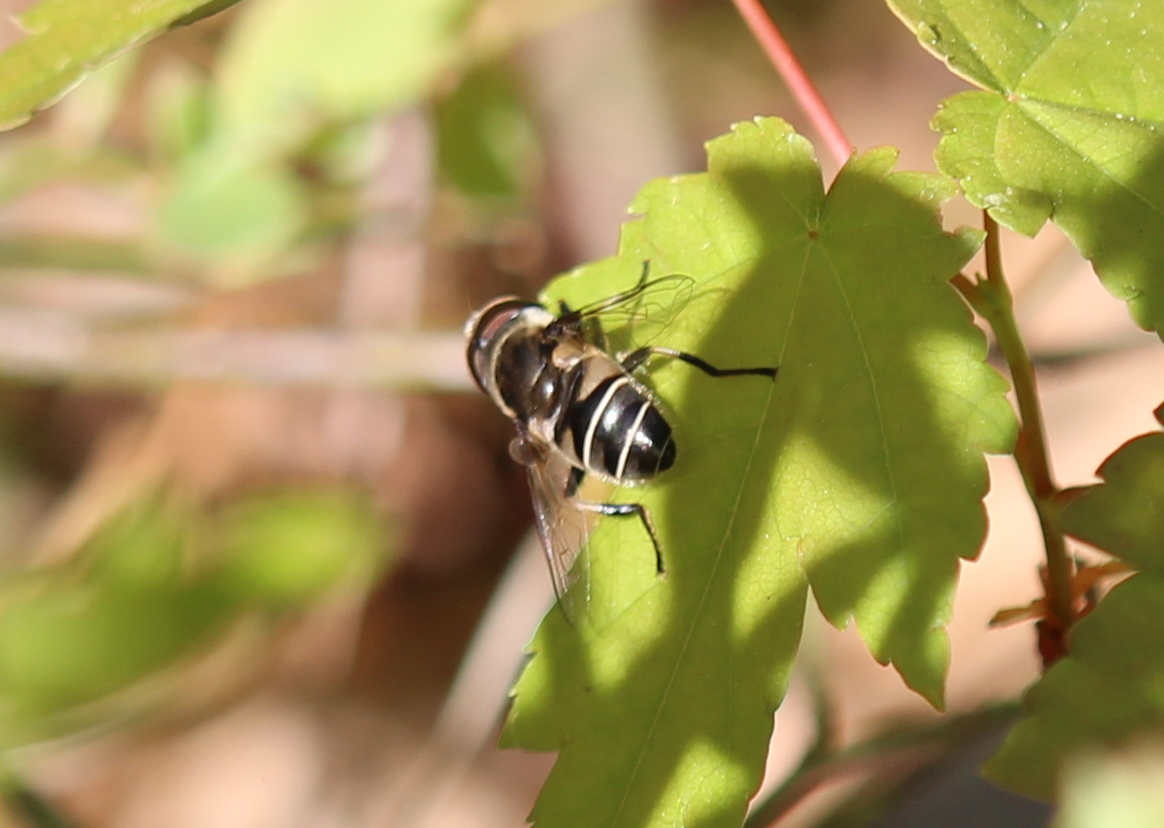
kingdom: Animalia
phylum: Arthropoda
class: Insecta
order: Diptera
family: Syrphidae
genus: Eristalis
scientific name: Eristalis dimidiata
